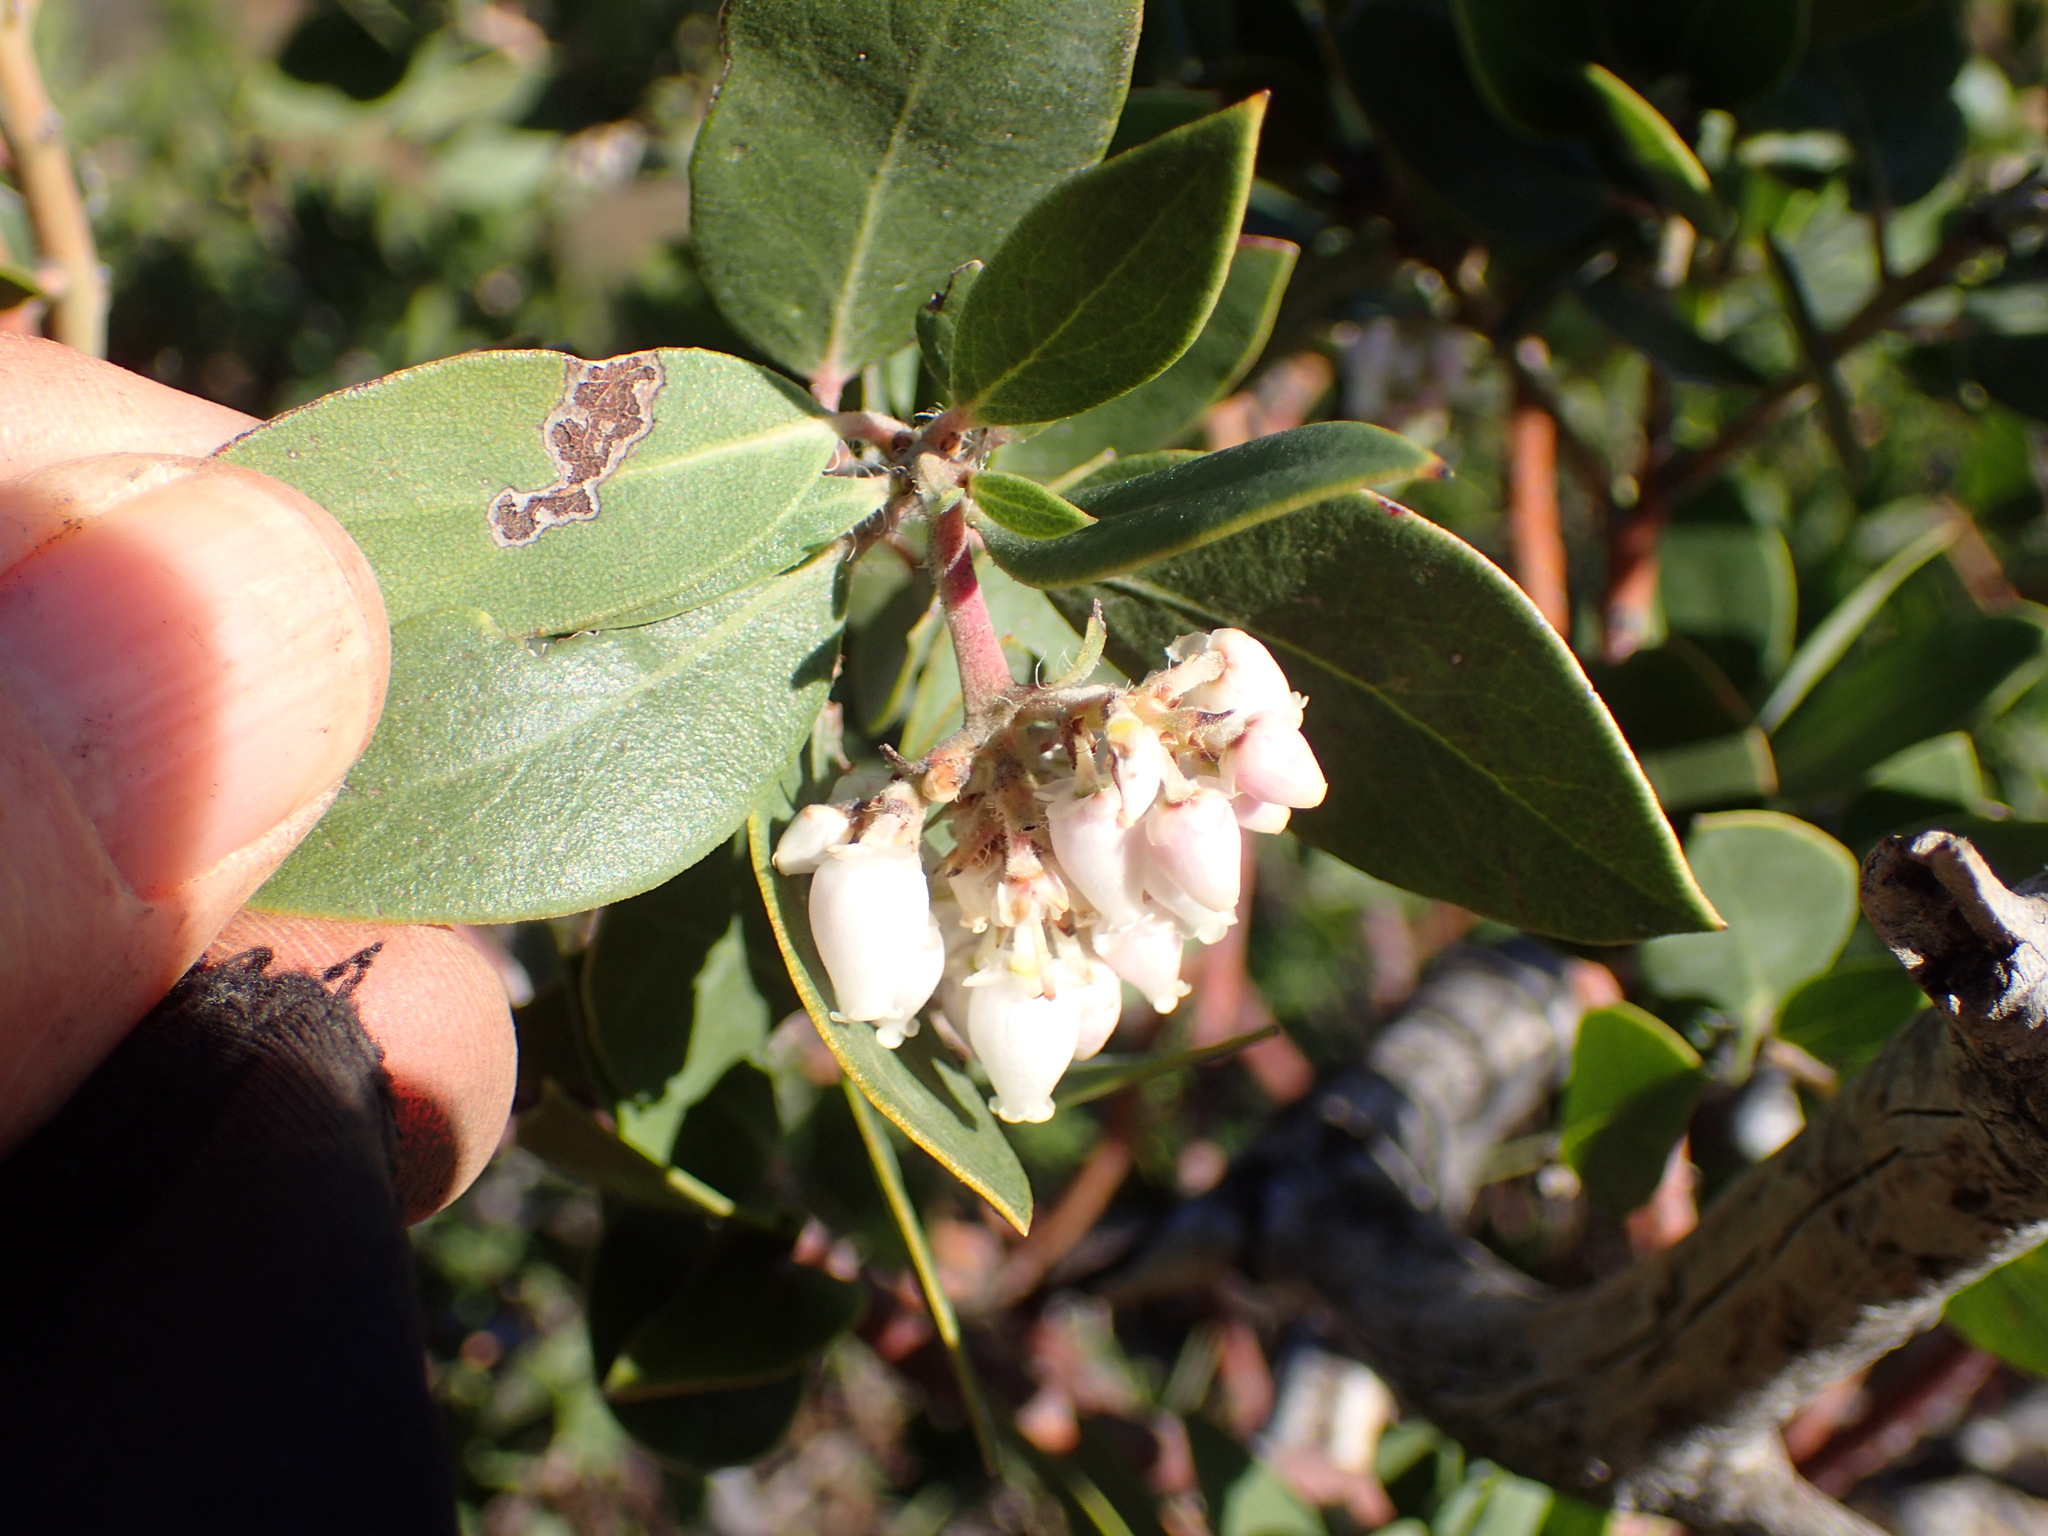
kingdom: Plantae
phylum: Tracheophyta
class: Magnoliopsida
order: Ericales
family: Ericaceae
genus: Arctostaphylos
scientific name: Arctostaphylos crustacea
